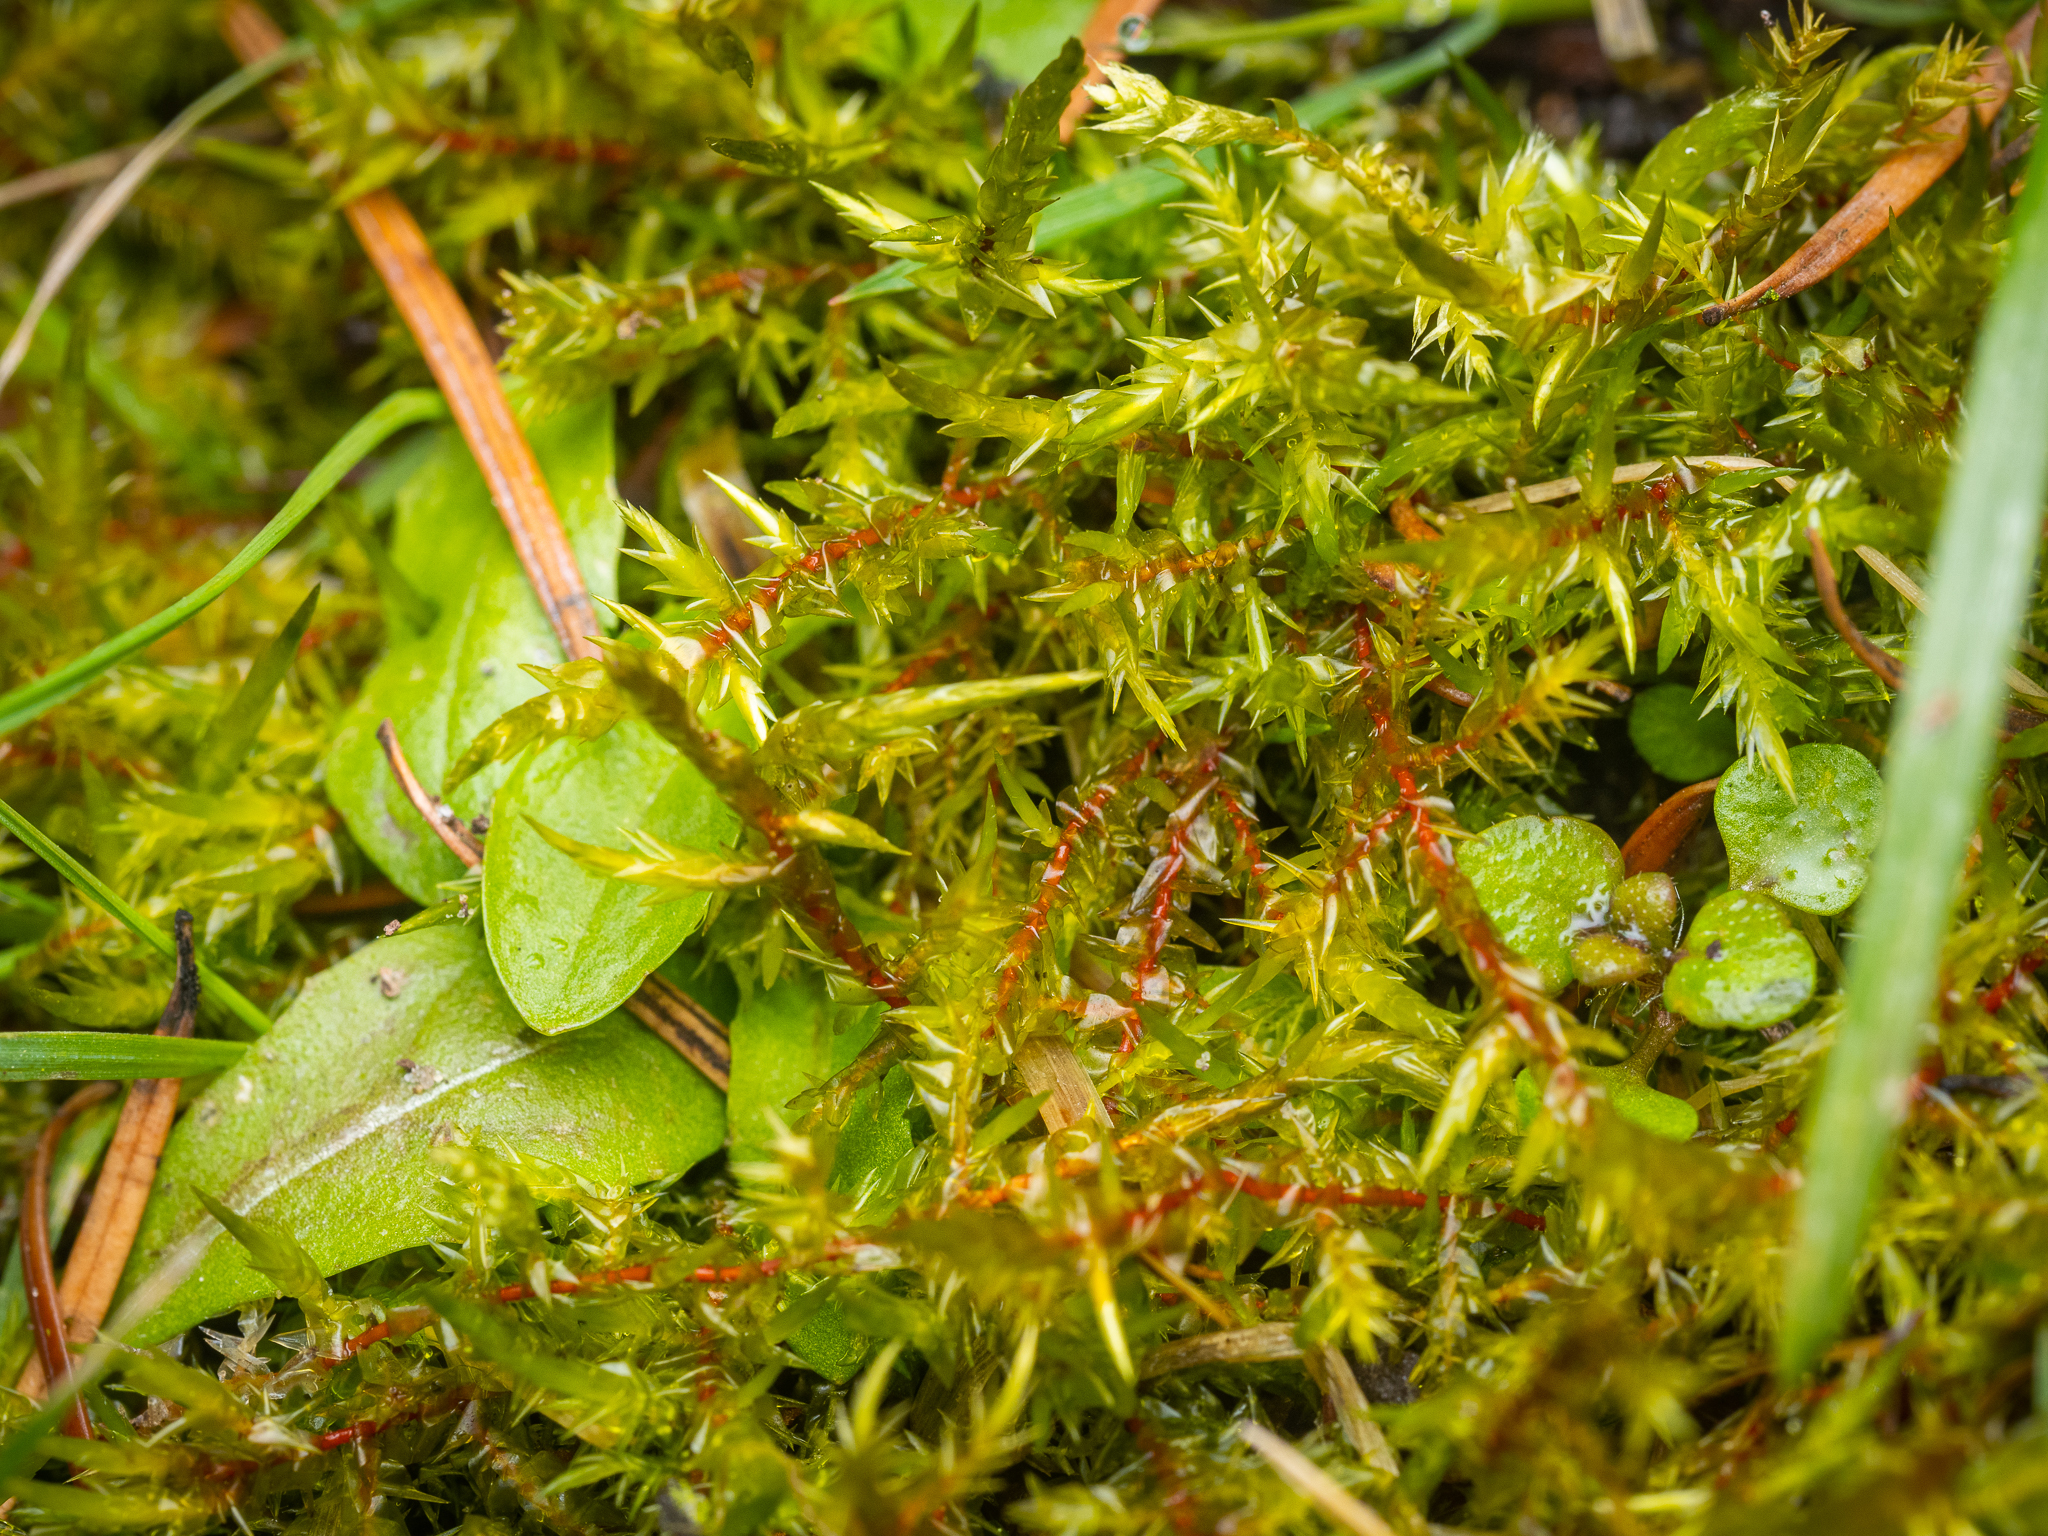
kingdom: Plantae
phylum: Bryophyta
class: Bryopsida
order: Hypnales
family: Pylaisiaceae
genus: Calliergonella
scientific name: Calliergonella cuspidata
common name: Common large wetland moss
